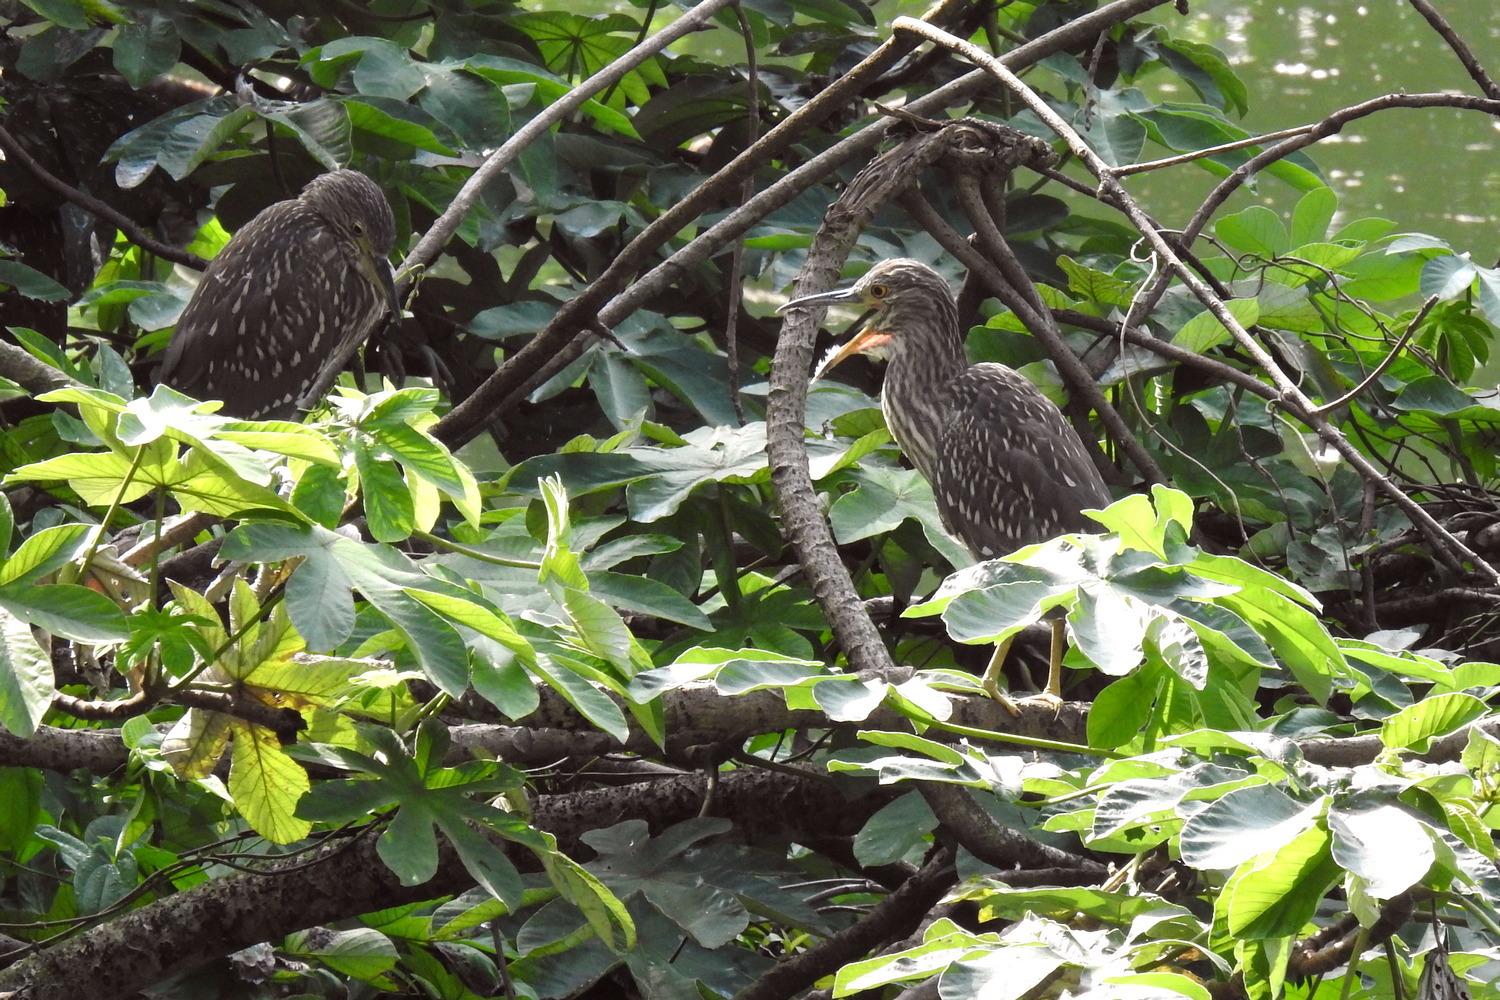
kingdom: Animalia
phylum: Chordata
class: Aves
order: Pelecaniformes
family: Ardeidae
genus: Nycticorax
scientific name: Nycticorax nycticorax
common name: Black-crowned night heron
